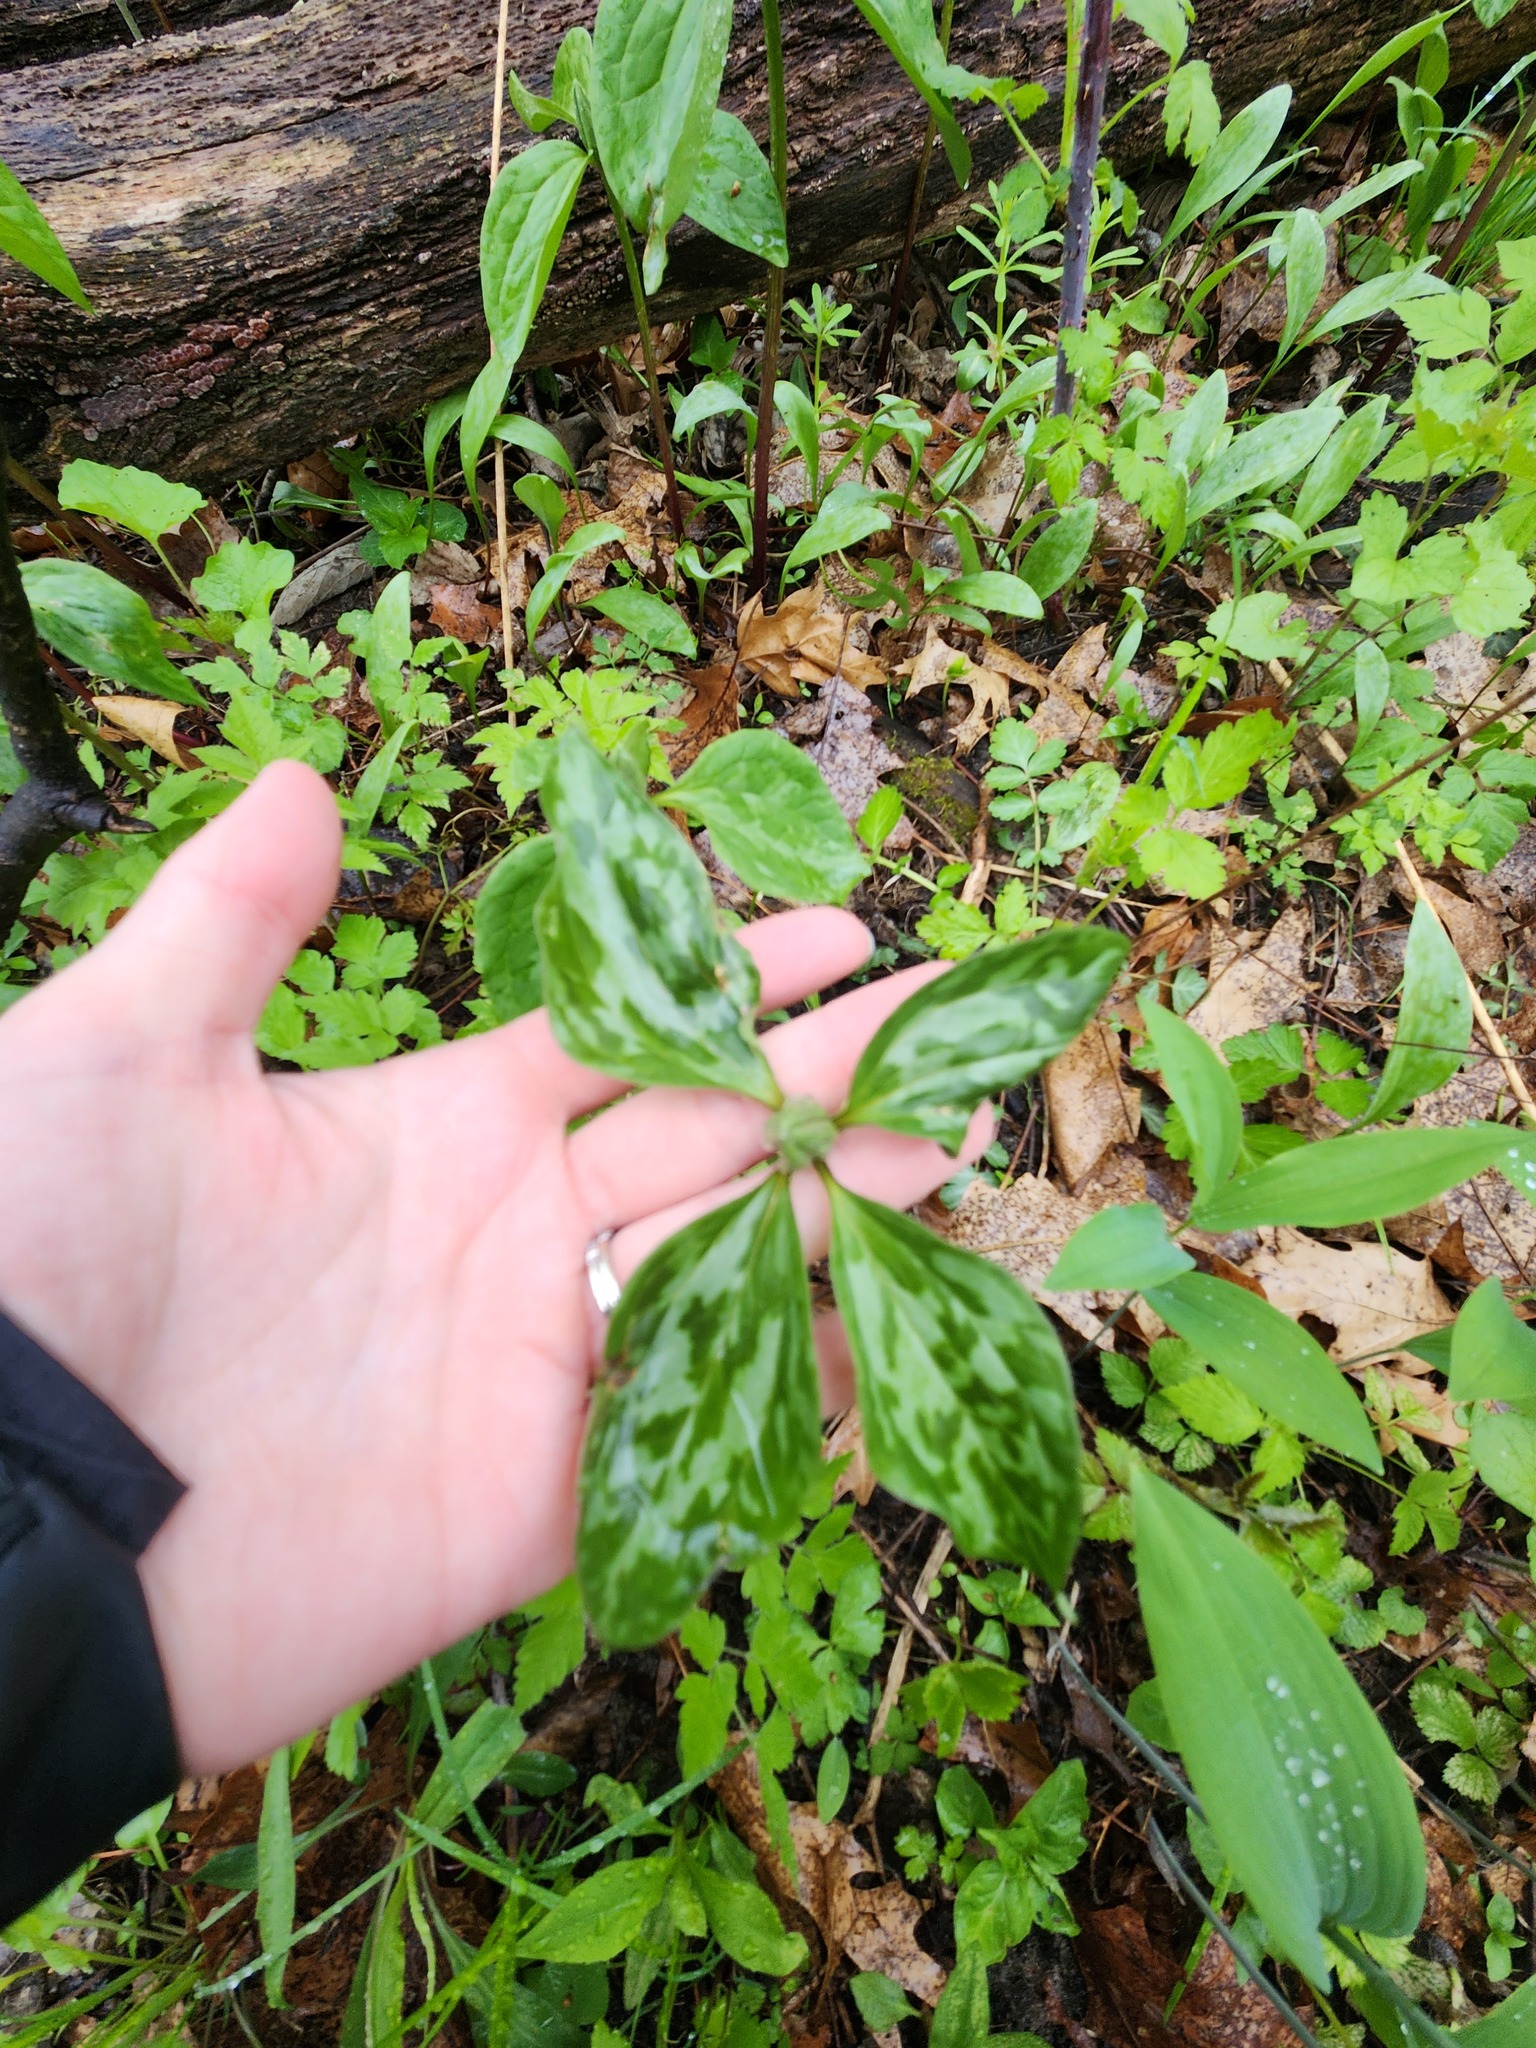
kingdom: Plantae
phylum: Tracheophyta
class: Liliopsida
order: Liliales
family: Melanthiaceae
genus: Trillium
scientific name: Trillium recurvatum
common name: Bloody butcher
